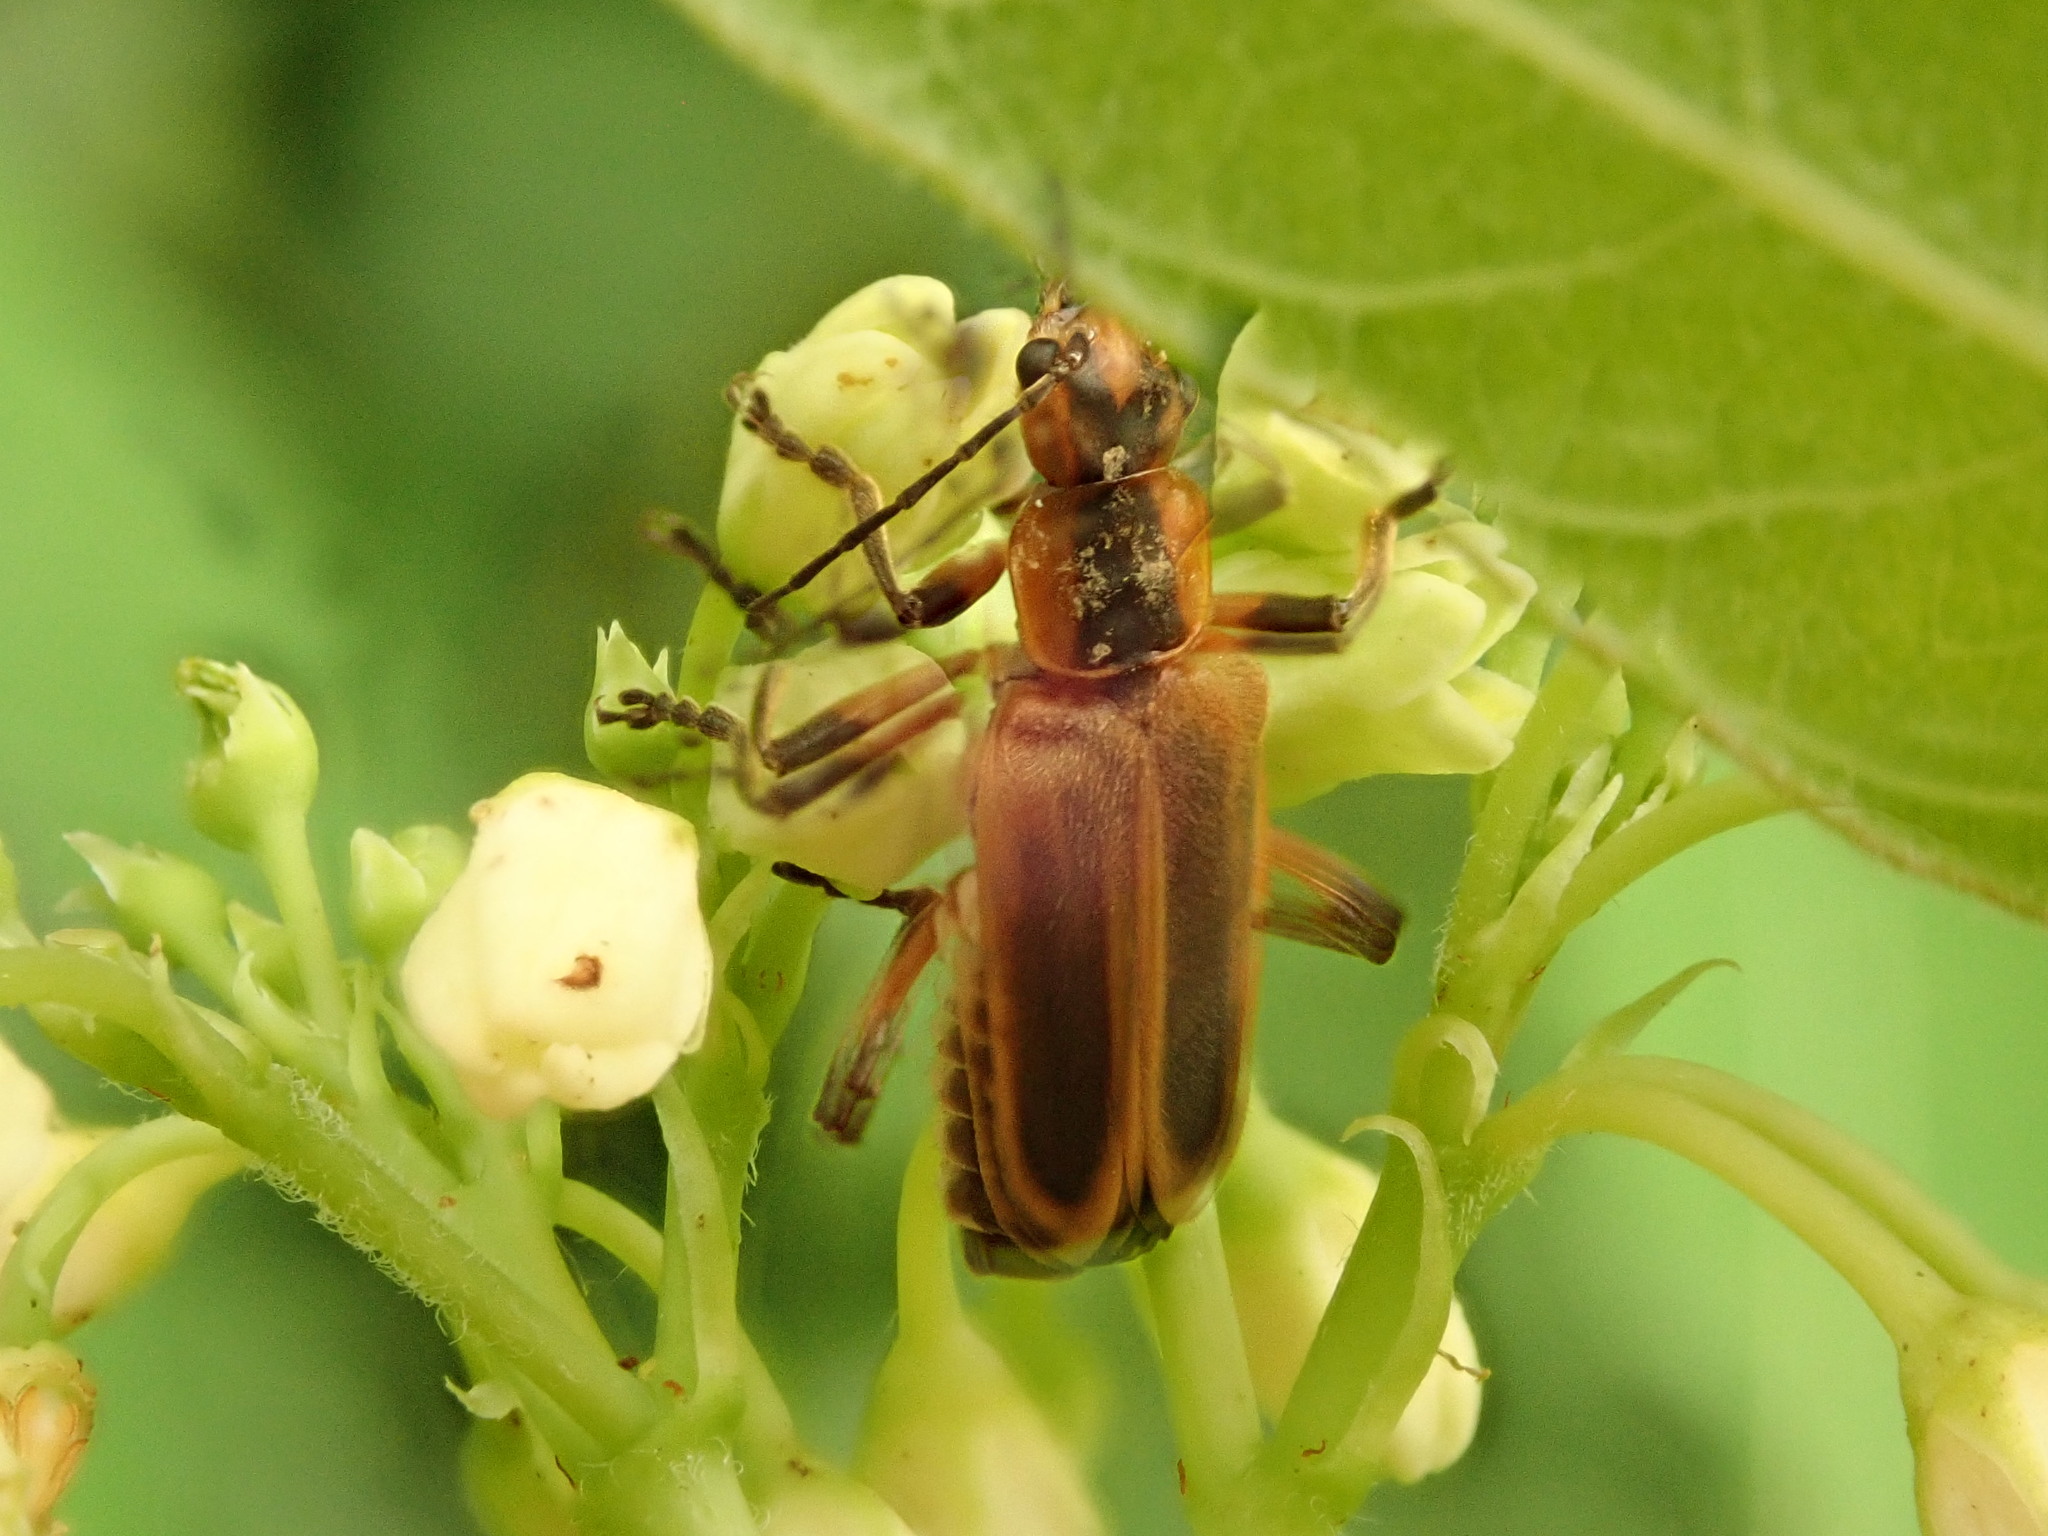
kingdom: Animalia
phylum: Arthropoda
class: Insecta
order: Coleoptera
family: Cantharidae
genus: Chauliognathus
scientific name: Chauliognathus marginatus
